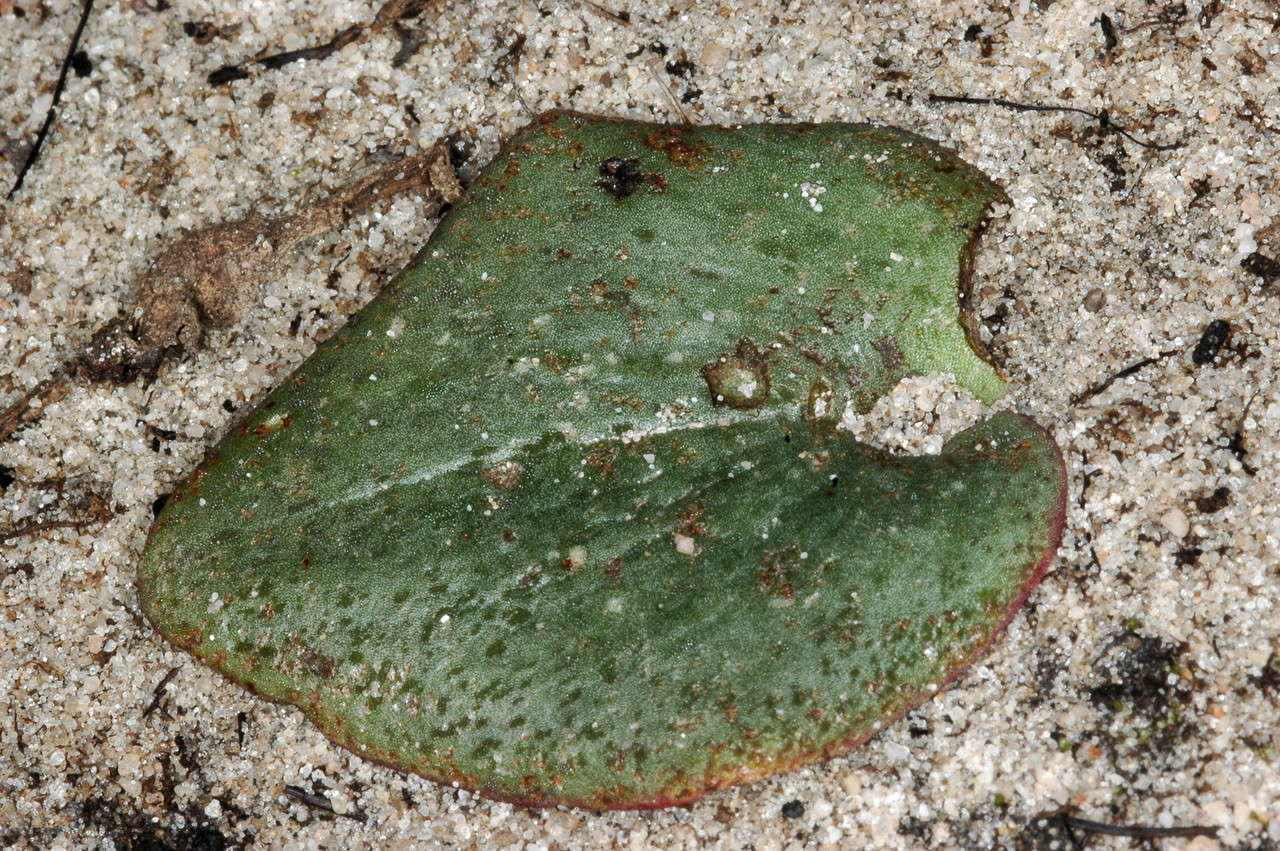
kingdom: Plantae
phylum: Tracheophyta
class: Liliopsida
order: Asparagales
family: Orchidaceae
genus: Pyrorchis
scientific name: Pyrorchis nigricans
